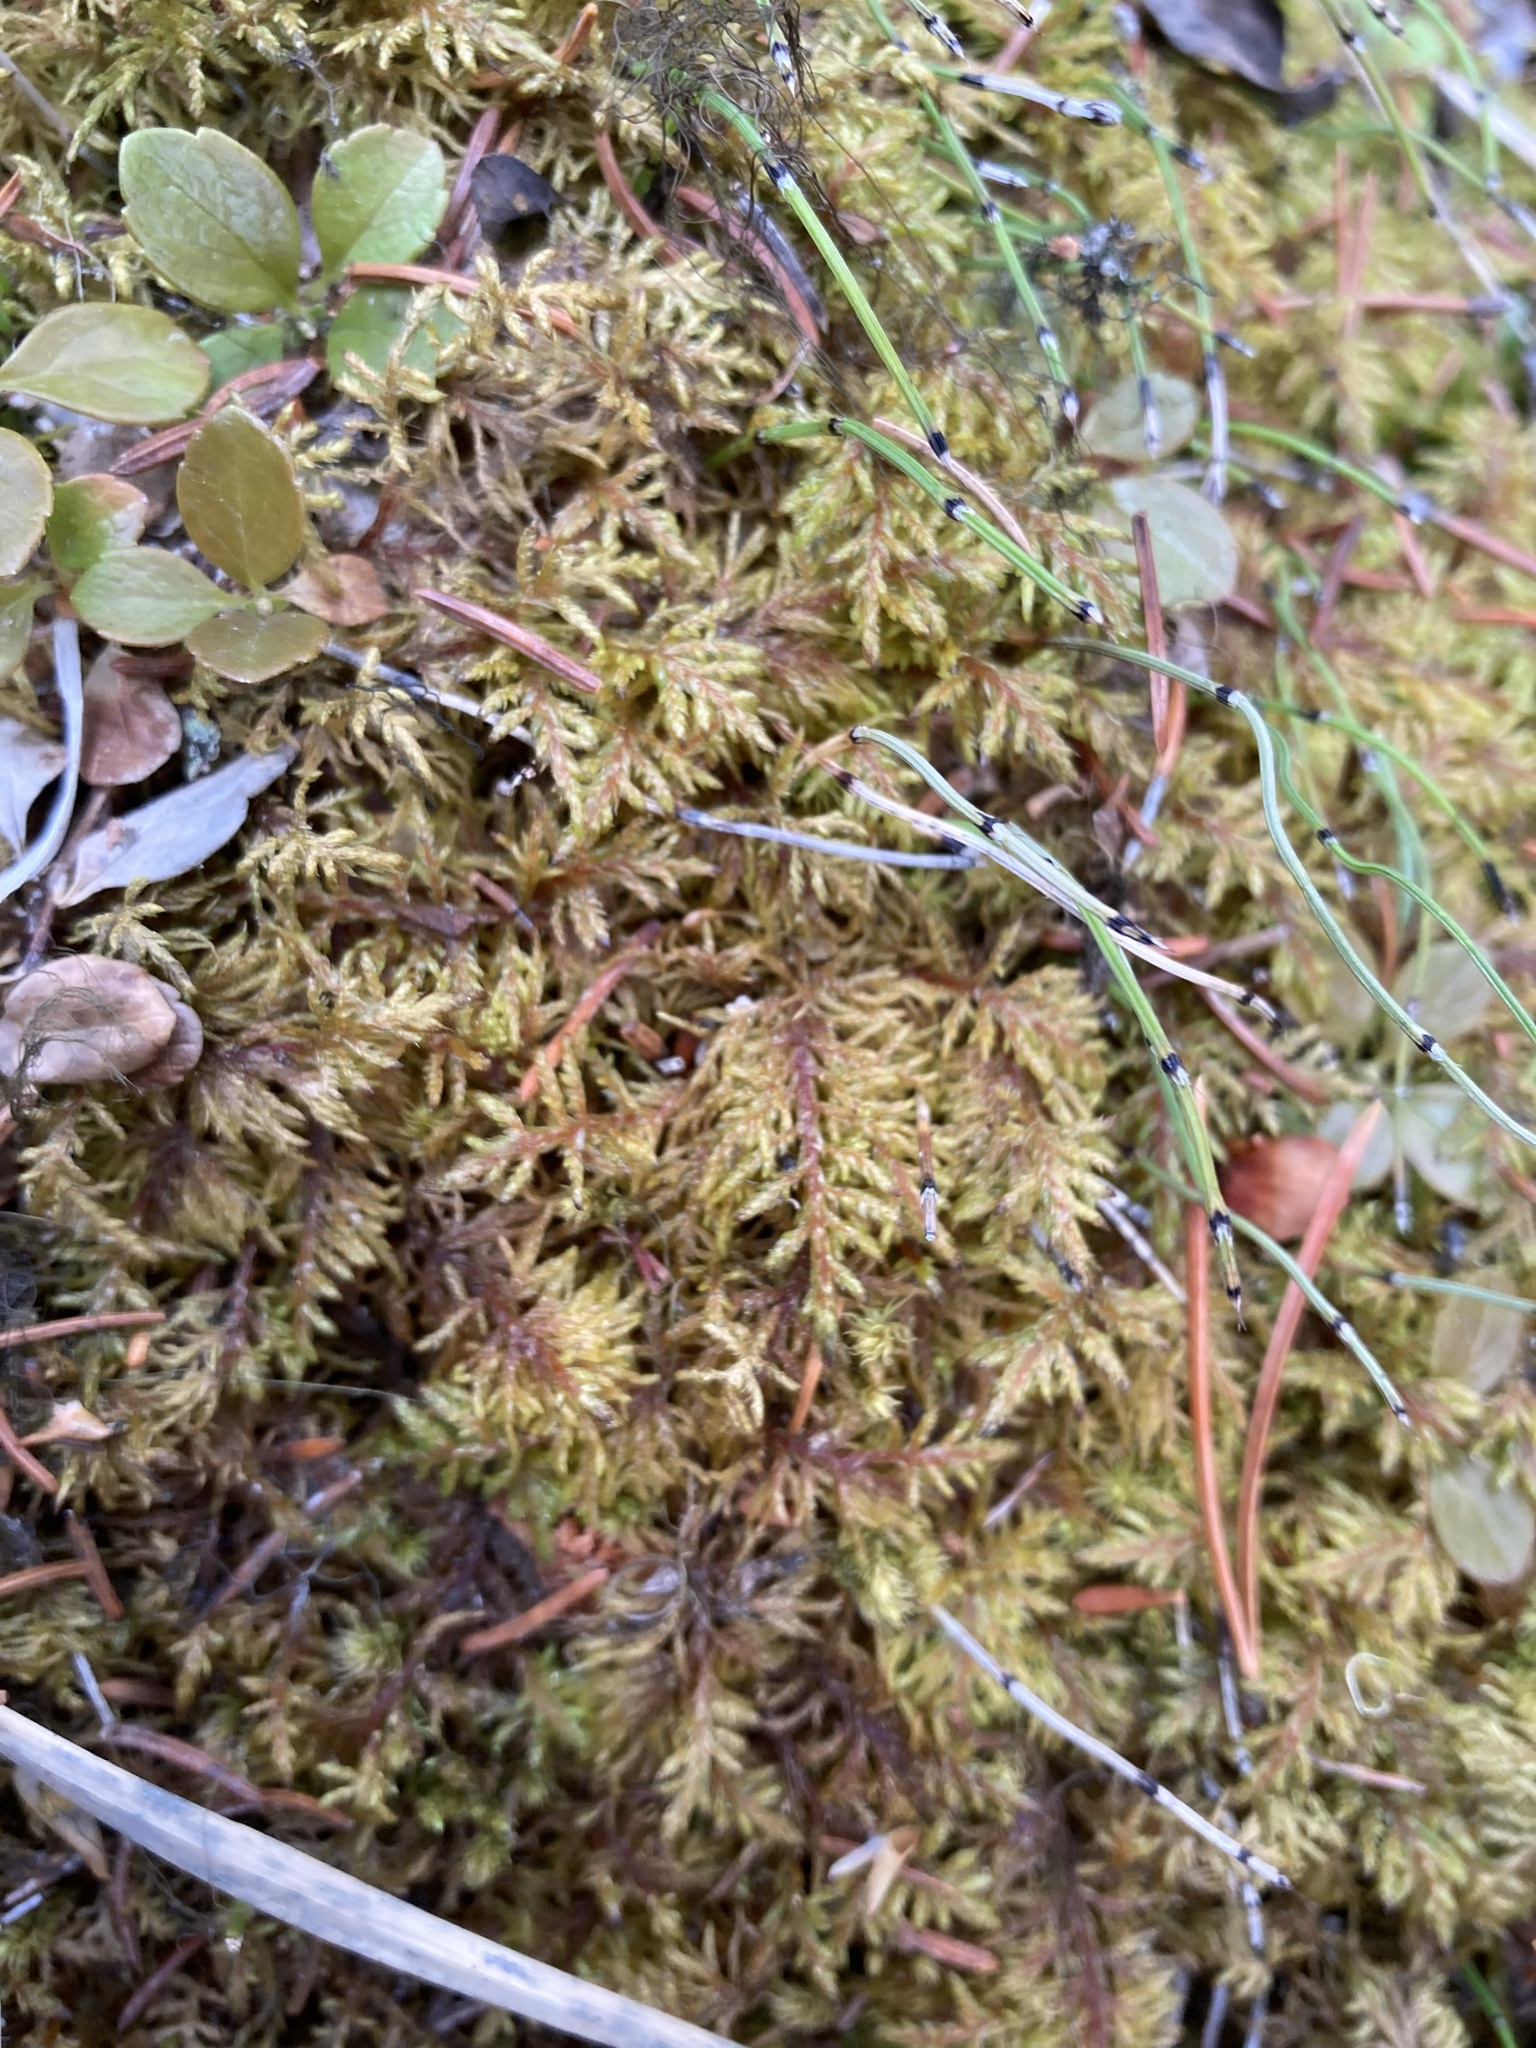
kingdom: Plantae
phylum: Bryophyta
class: Bryopsida
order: Hypnales
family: Hylocomiaceae
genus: Hylocomium
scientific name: Hylocomium splendens
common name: Stairstep moss
